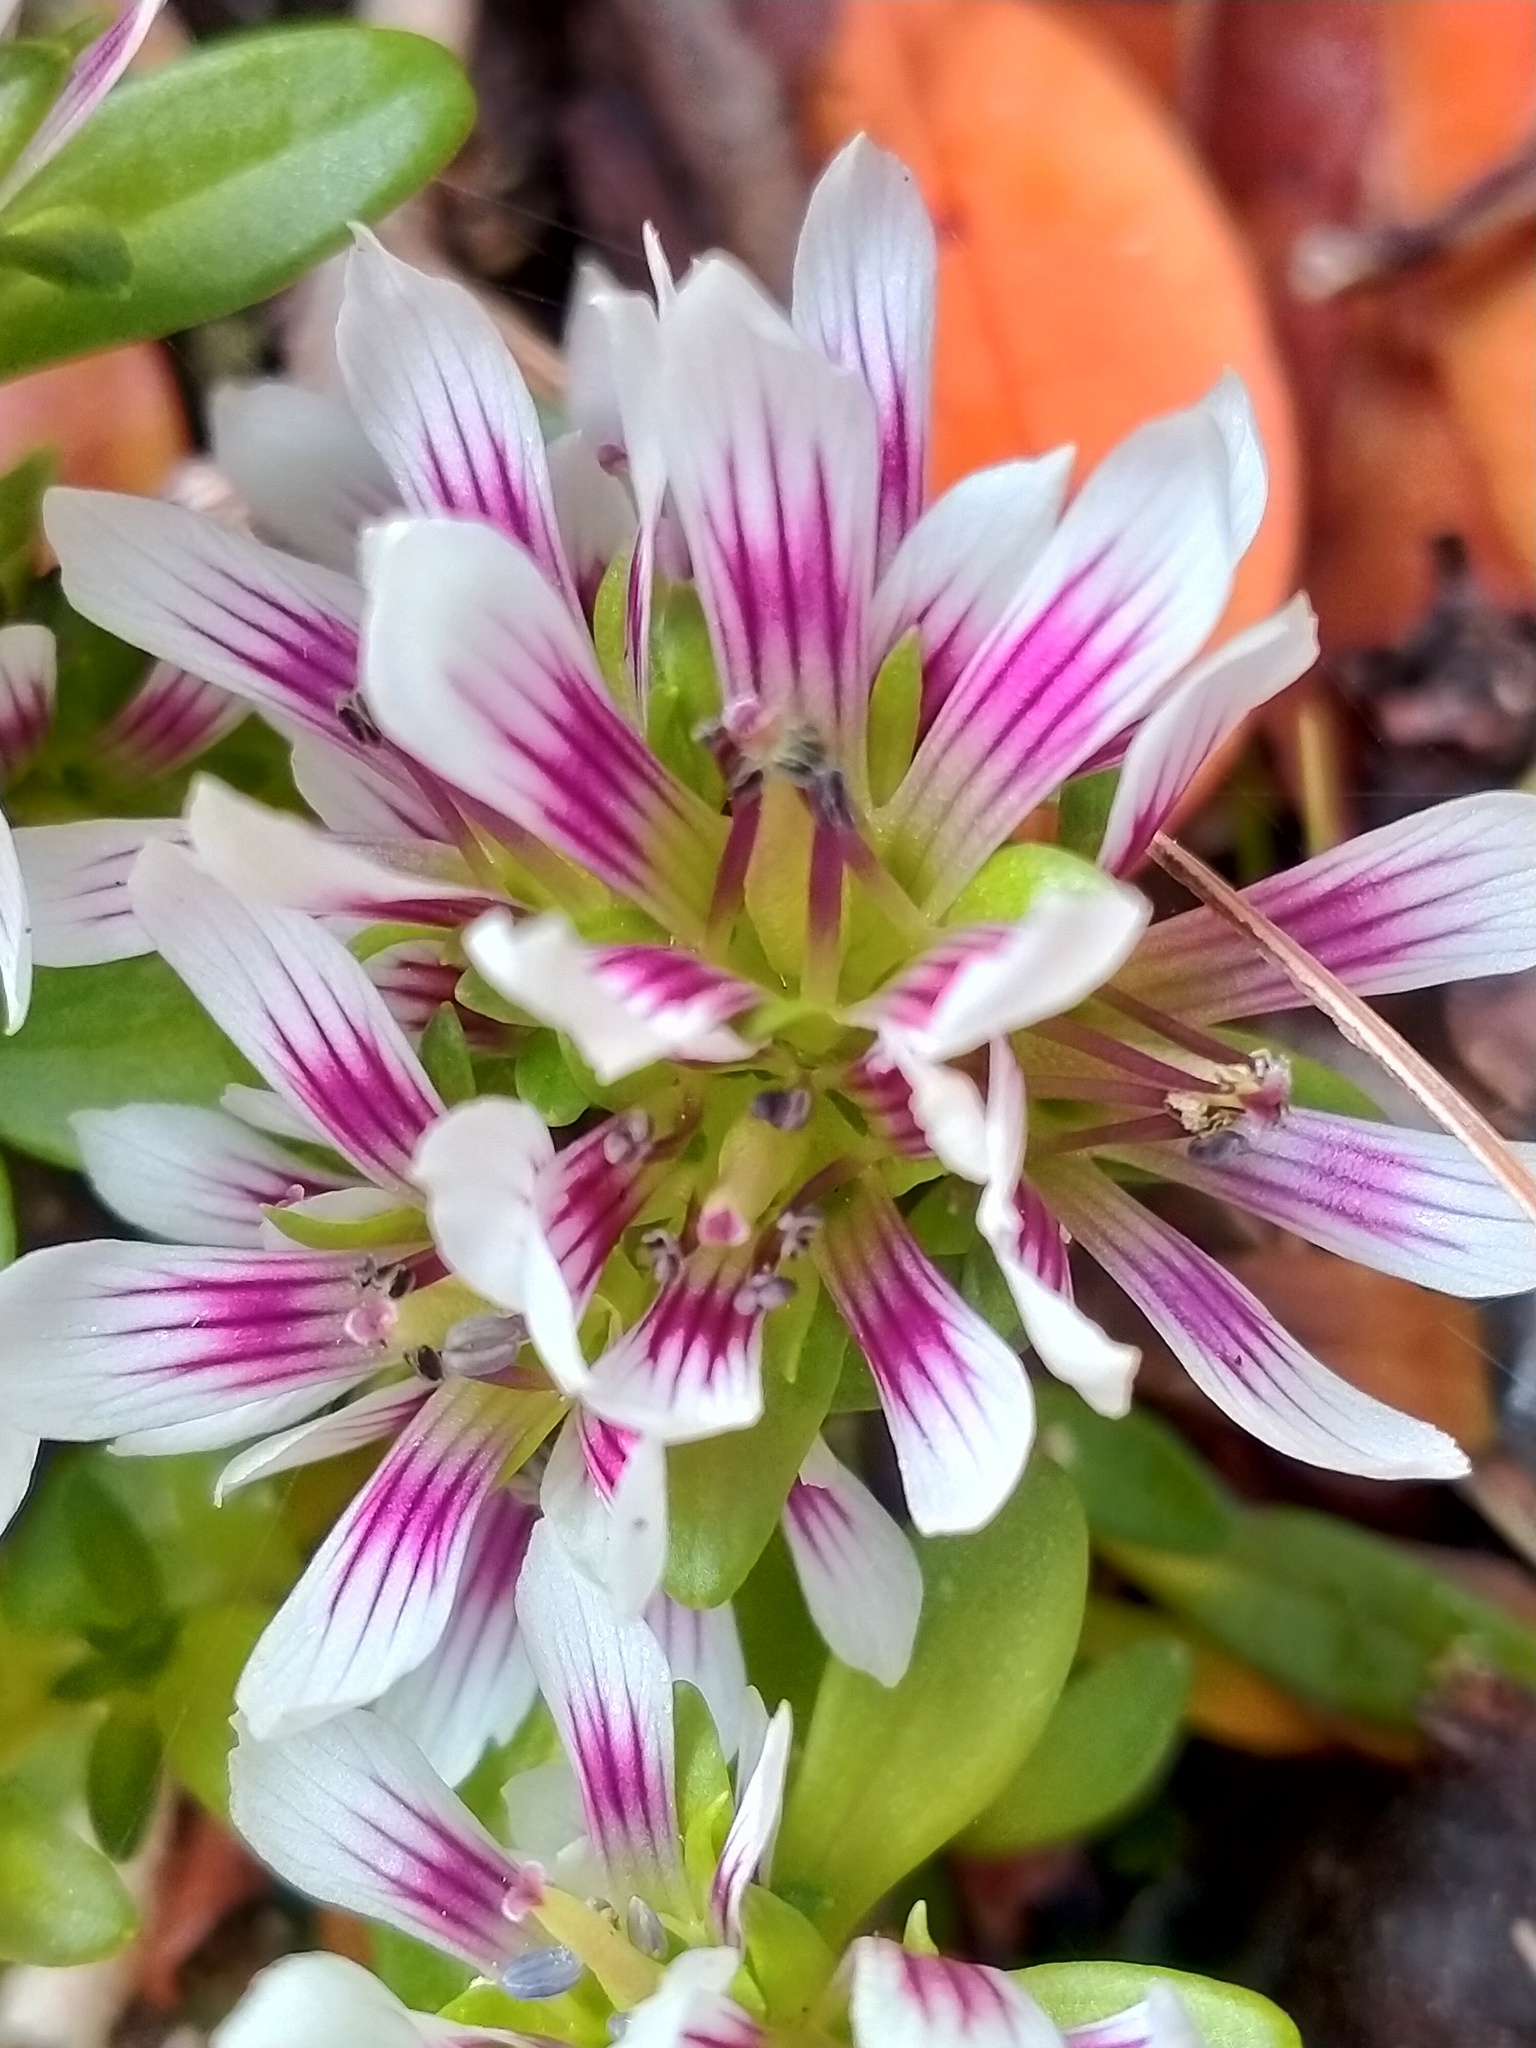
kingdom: Plantae
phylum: Tracheophyta
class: Magnoliopsida
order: Gentianales
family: Gentianaceae
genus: Gentianella
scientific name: Gentianella concinna
